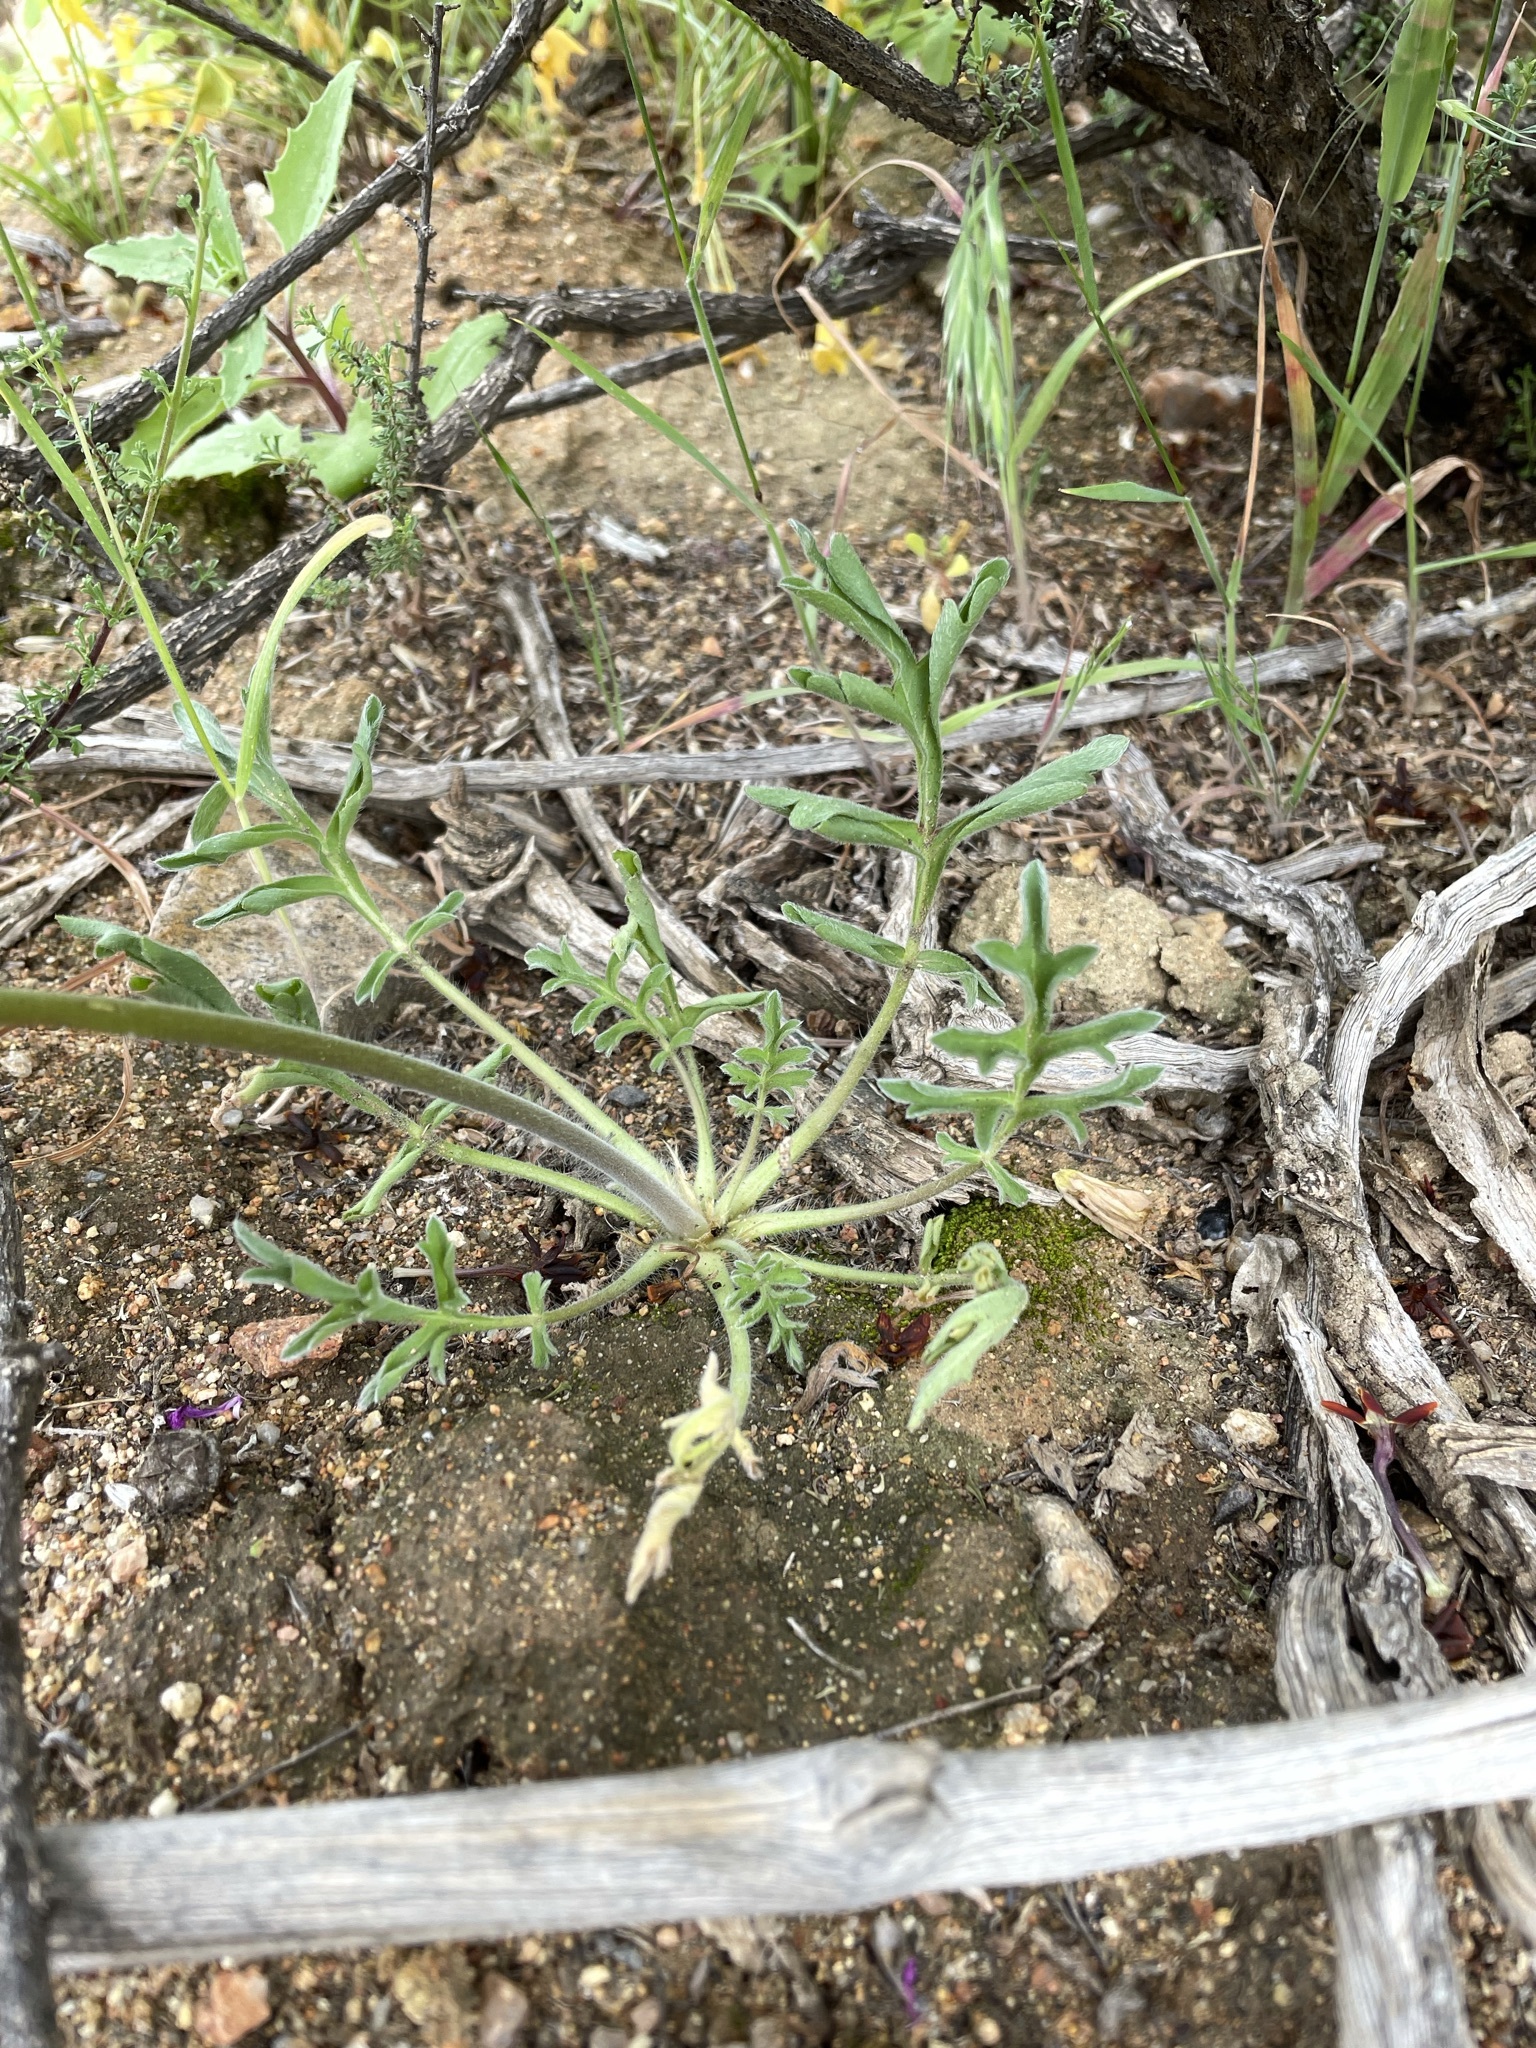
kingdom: Plantae
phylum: Tracheophyta
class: Magnoliopsida
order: Geraniales
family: Geraniaceae
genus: Pelargonium
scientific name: Pelargonium incrassatum
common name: Namaqualand beauty
